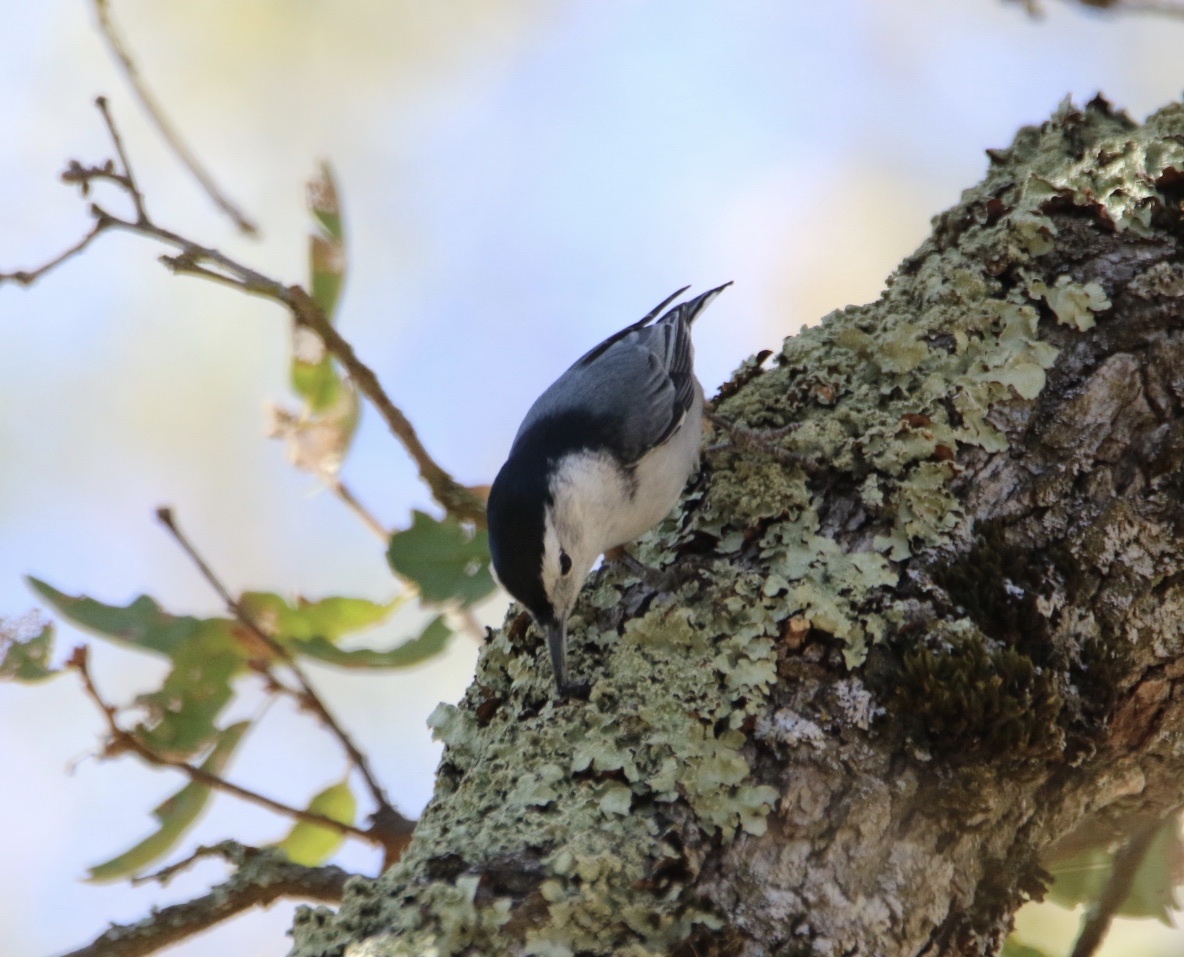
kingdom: Animalia
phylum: Chordata
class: Aves
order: Passeriformes
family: Sittidae
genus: Sitta
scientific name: Sitta carolinensis
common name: White-breasted nuthatch
